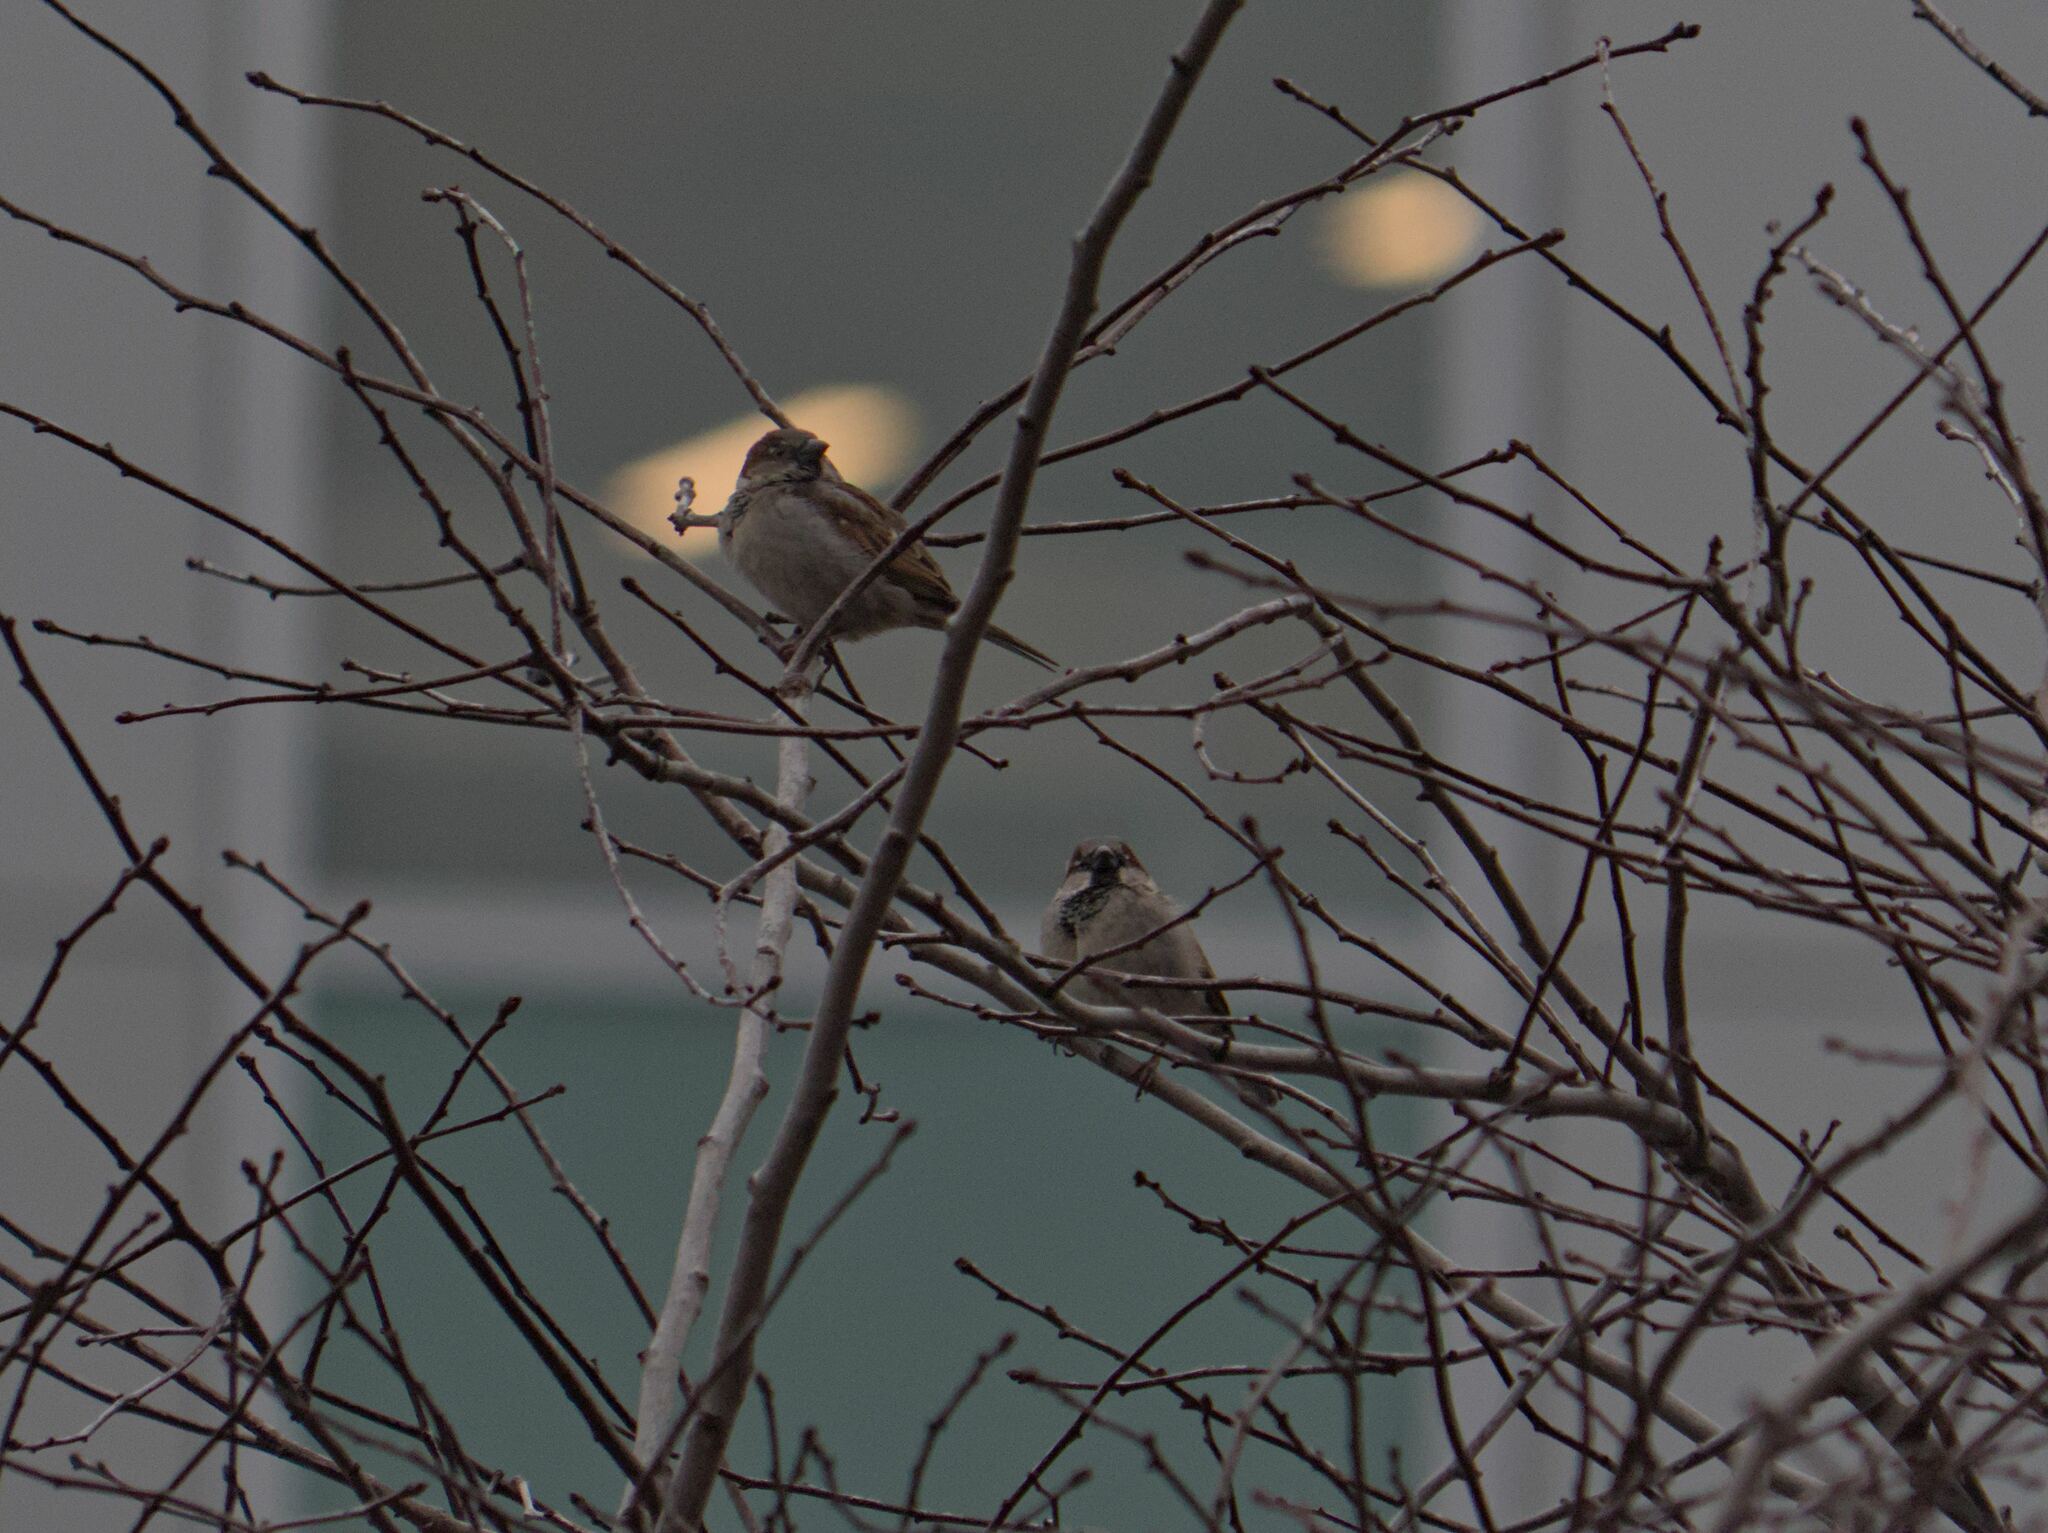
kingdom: Animalia
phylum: Chordata
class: Aves
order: Passeriformes
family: Passeridae
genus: Passer
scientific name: Passer domesticus
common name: House sparrow
